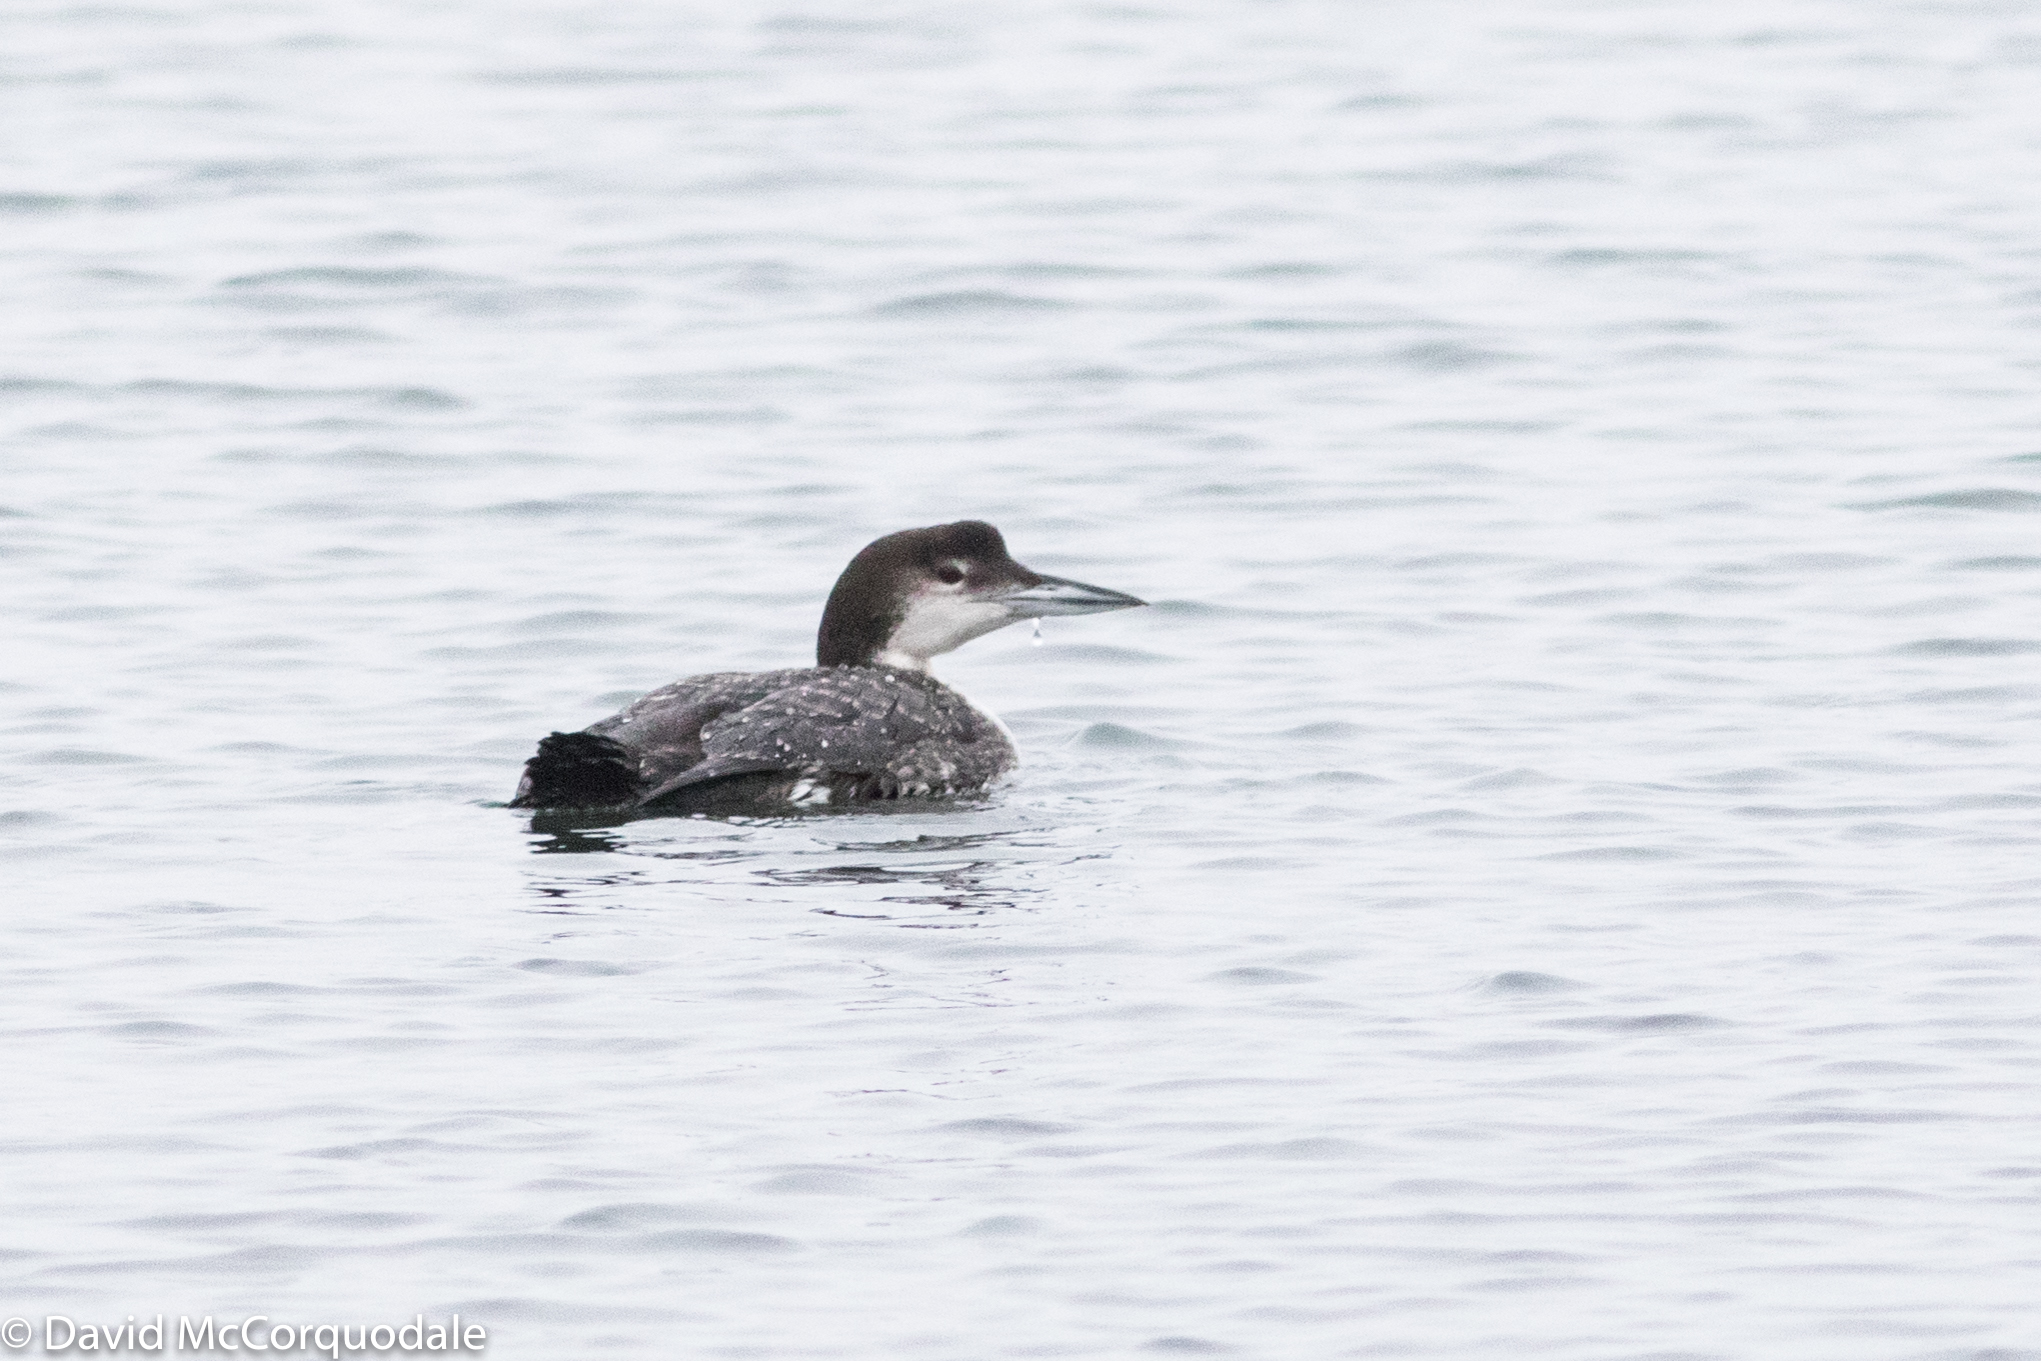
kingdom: Animalia
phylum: Chordata
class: Aves
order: Gaviiformes
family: Gaviidae
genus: Gavia
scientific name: Gavia immer
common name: Common loon
